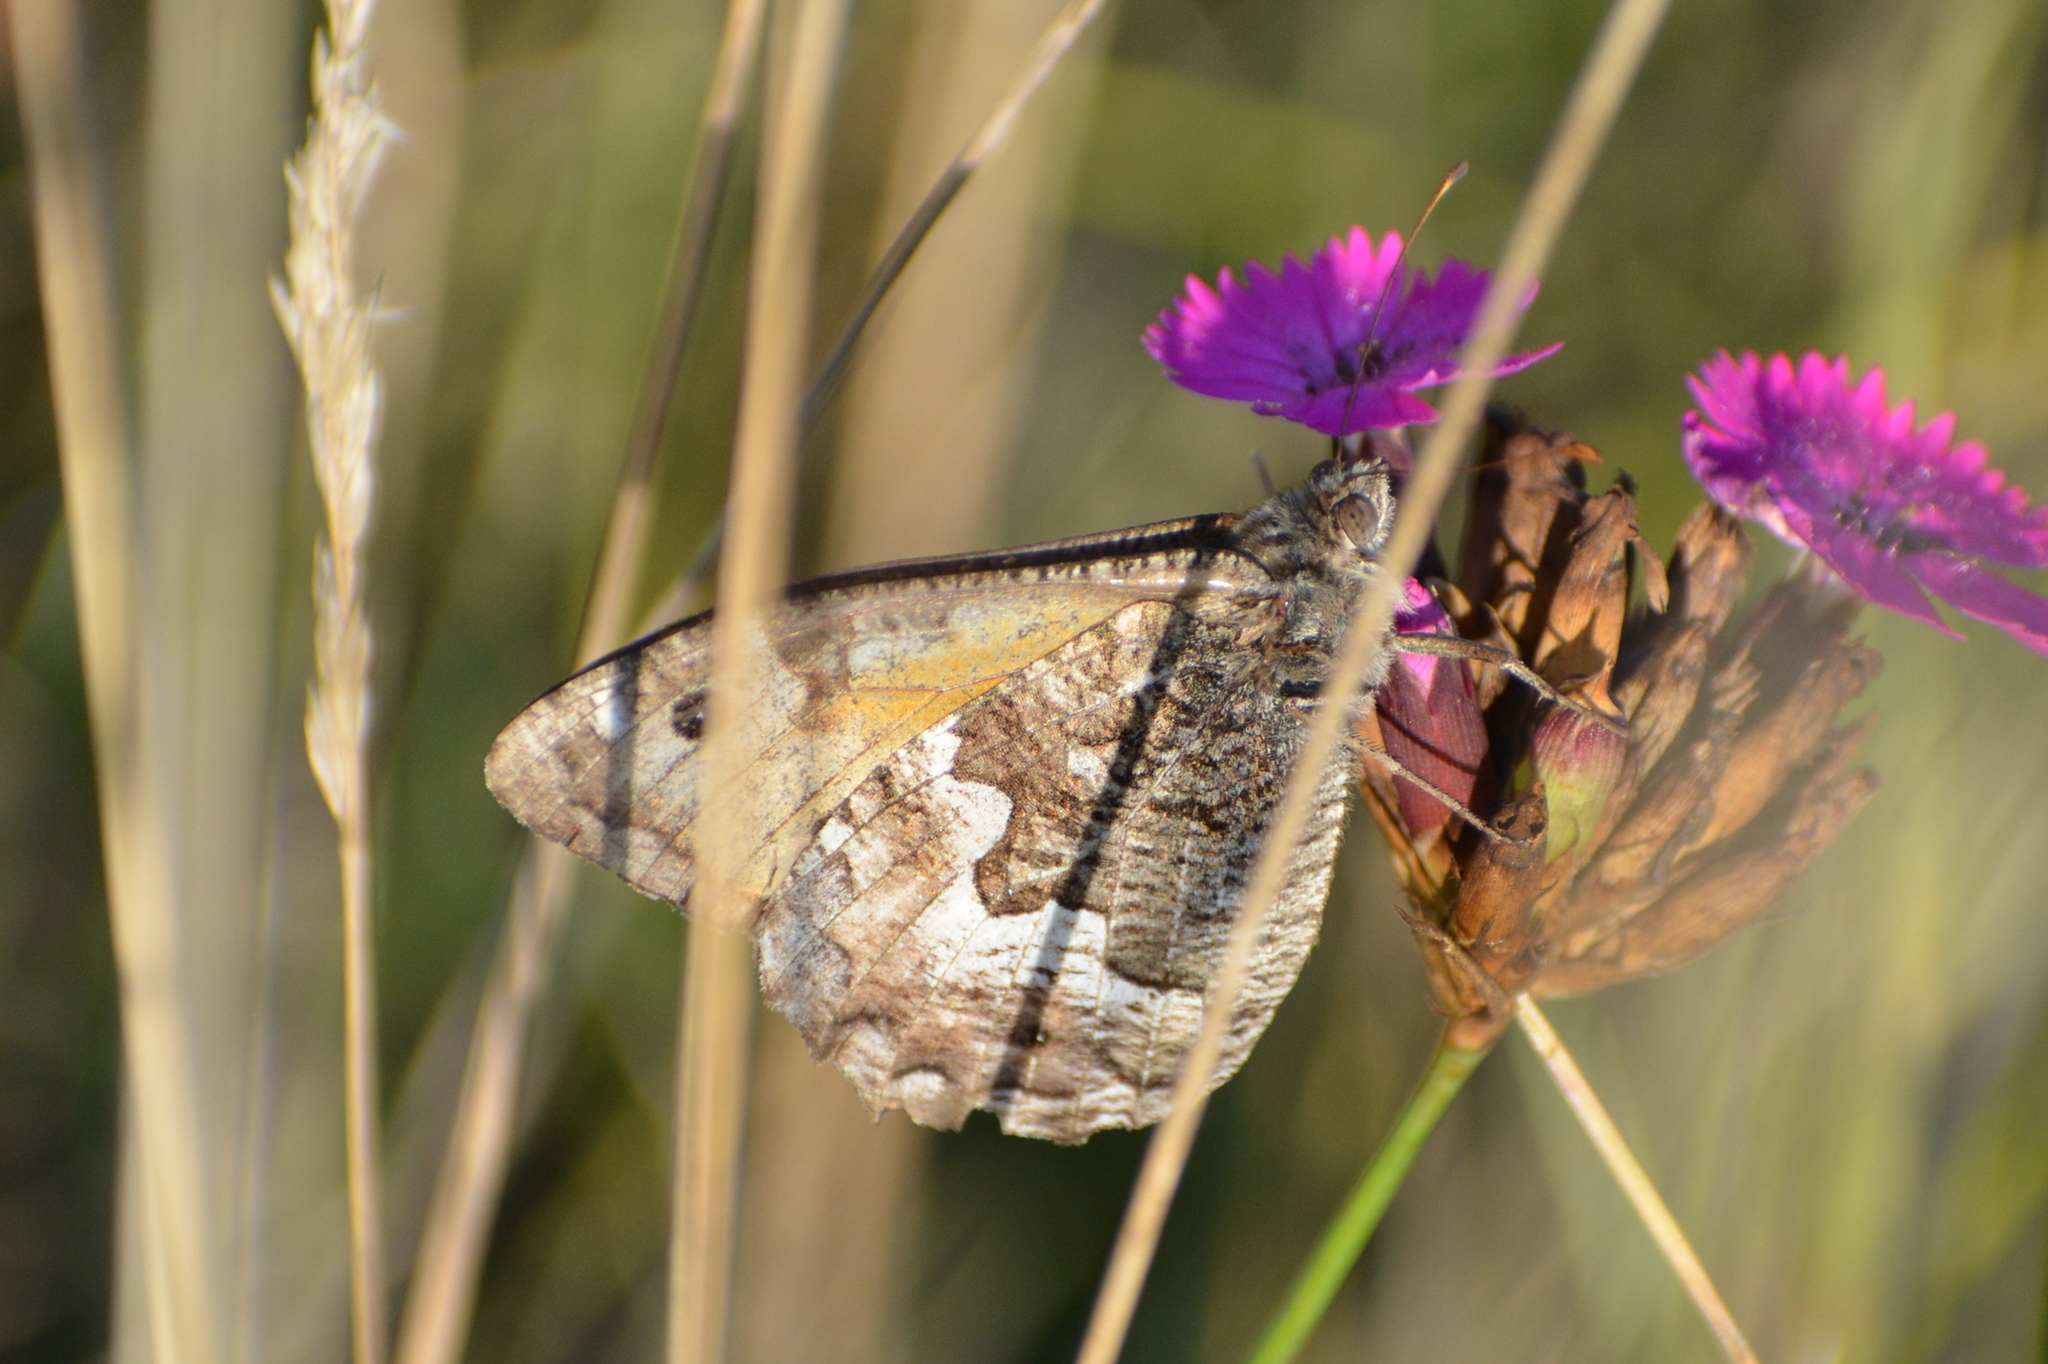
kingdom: Animalia
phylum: Arthropoda
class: Insecta
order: Lepidoptera
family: Nymphalidae
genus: Hipparchia
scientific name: Hipparchia semele
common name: Grayling
